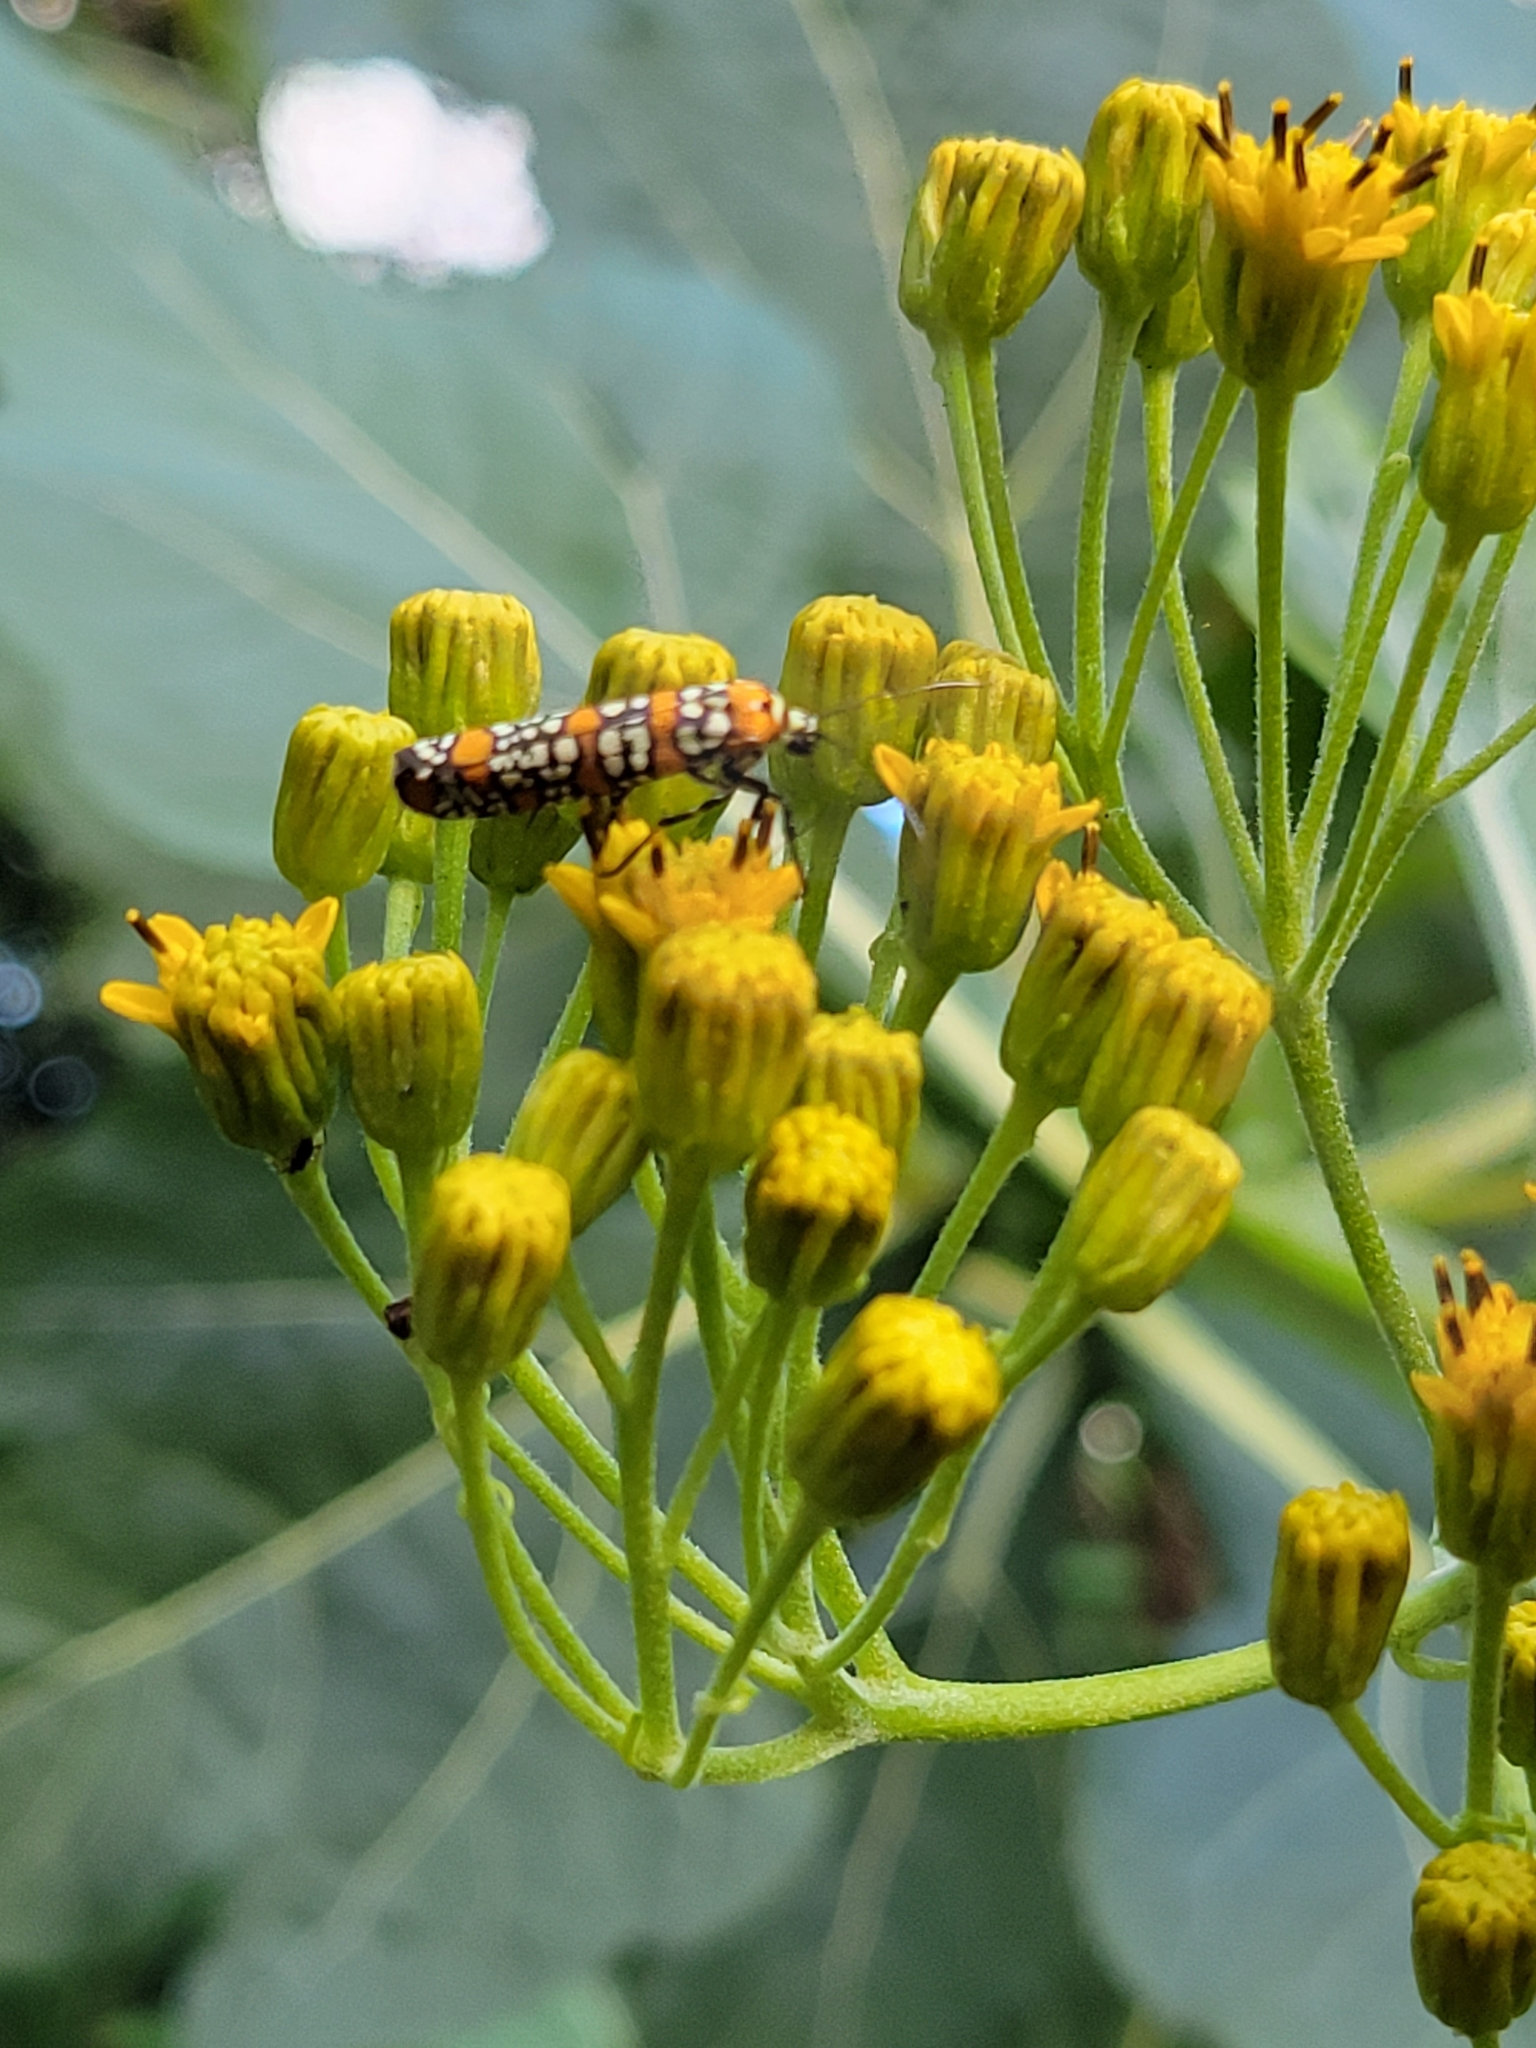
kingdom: Animalia
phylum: Arthropoda
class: Insecta
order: Lepidoptera
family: Attevidae
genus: Atteva
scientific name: Atteva punctella
